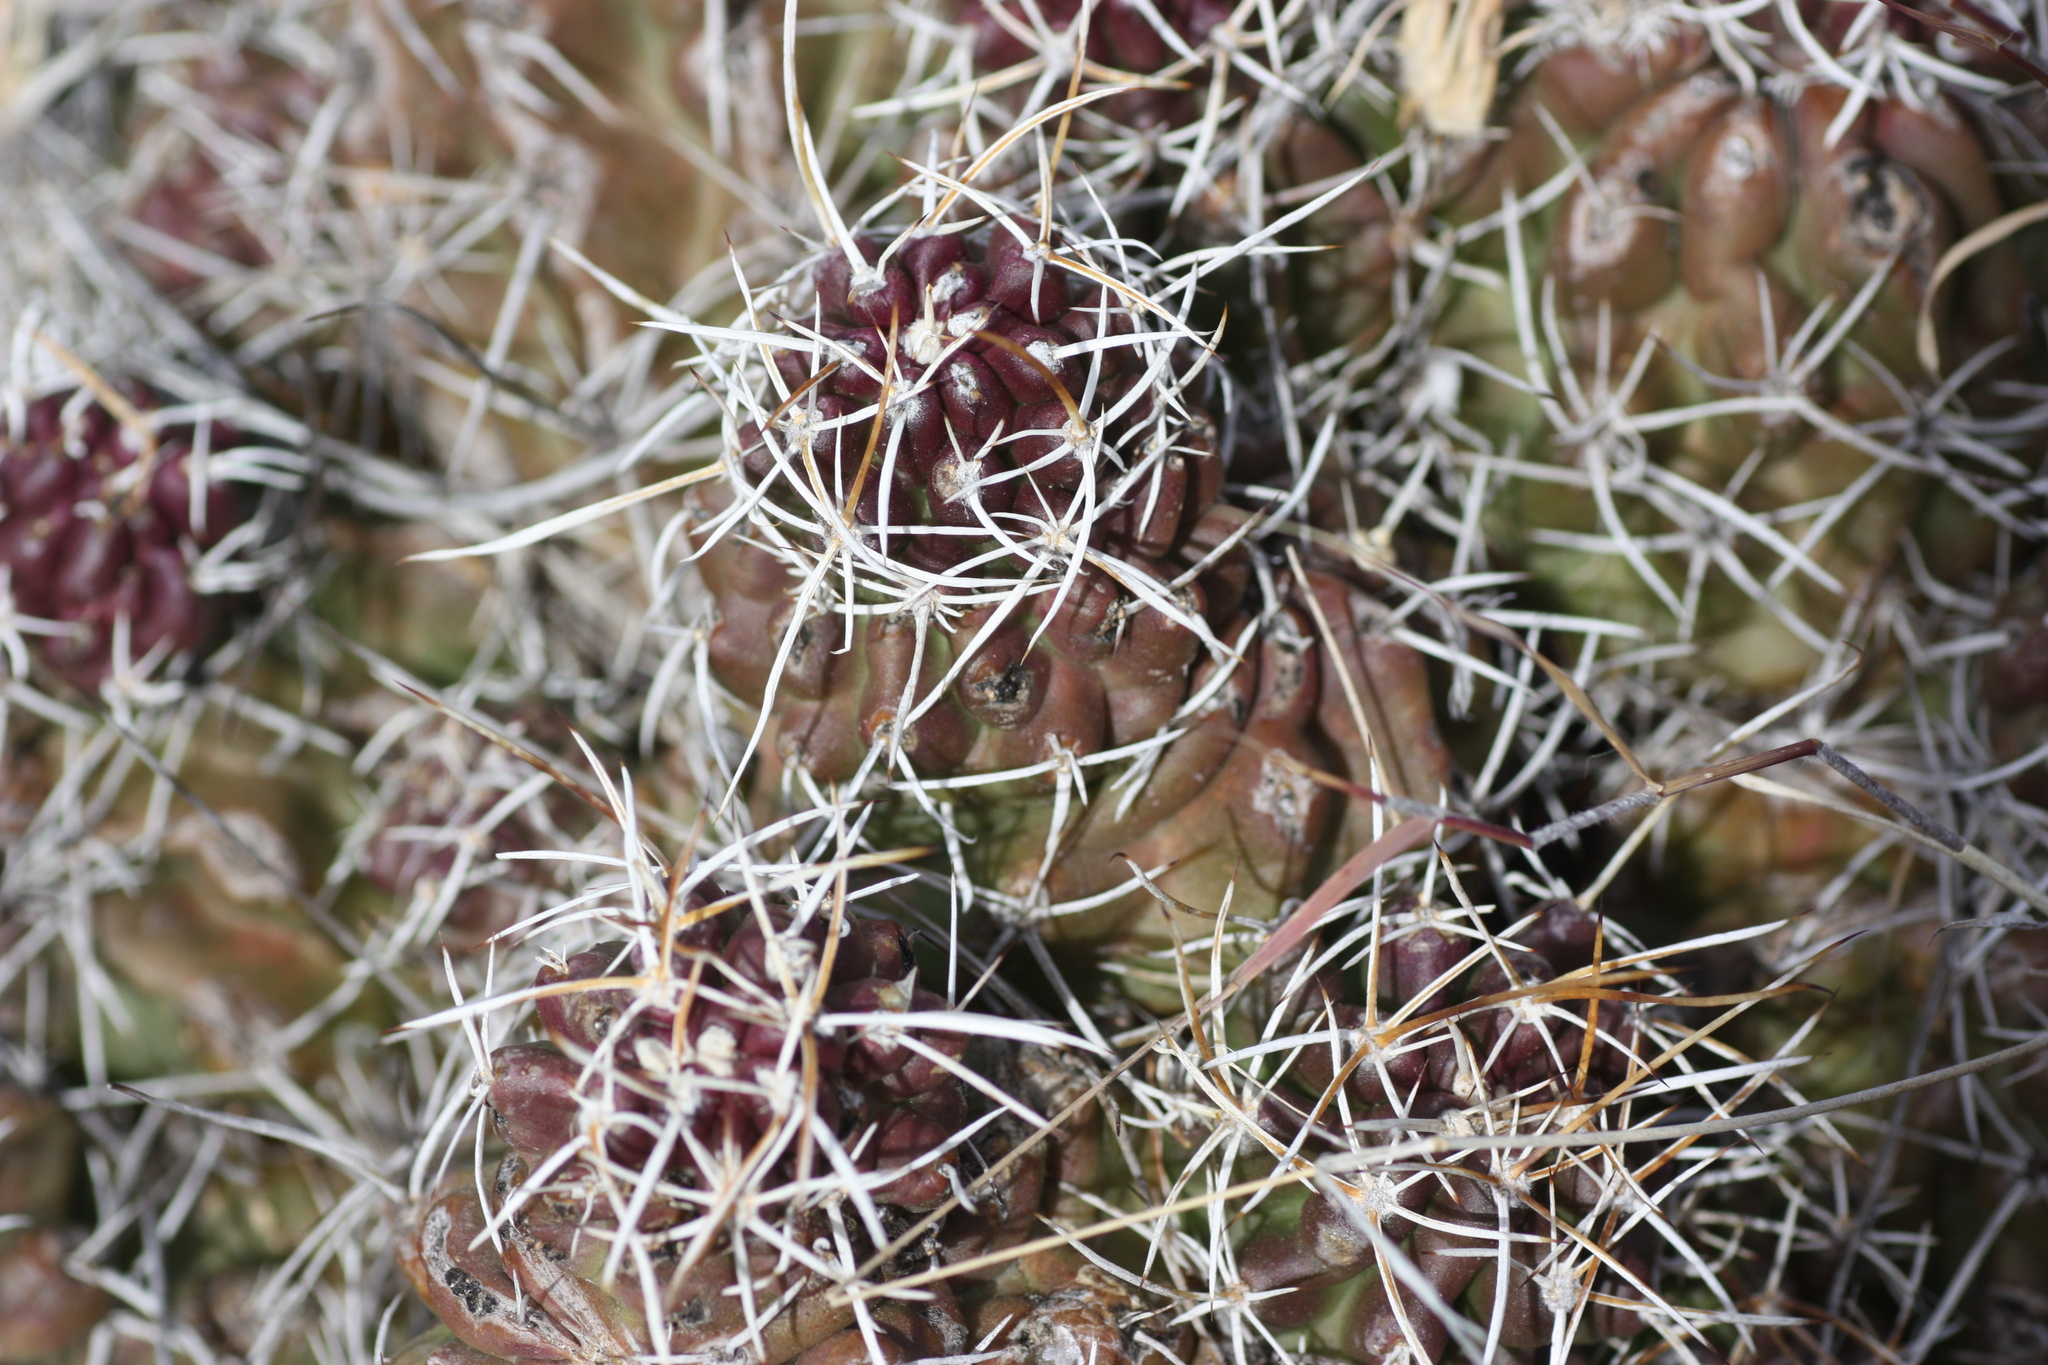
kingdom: Plantae
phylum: Tracheophyta
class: Magnoliopsida
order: Caryophyllales
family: Cactaceae
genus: Echinocereus
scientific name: Echinocereus fendleri
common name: Fendler's hedgehog cactus
